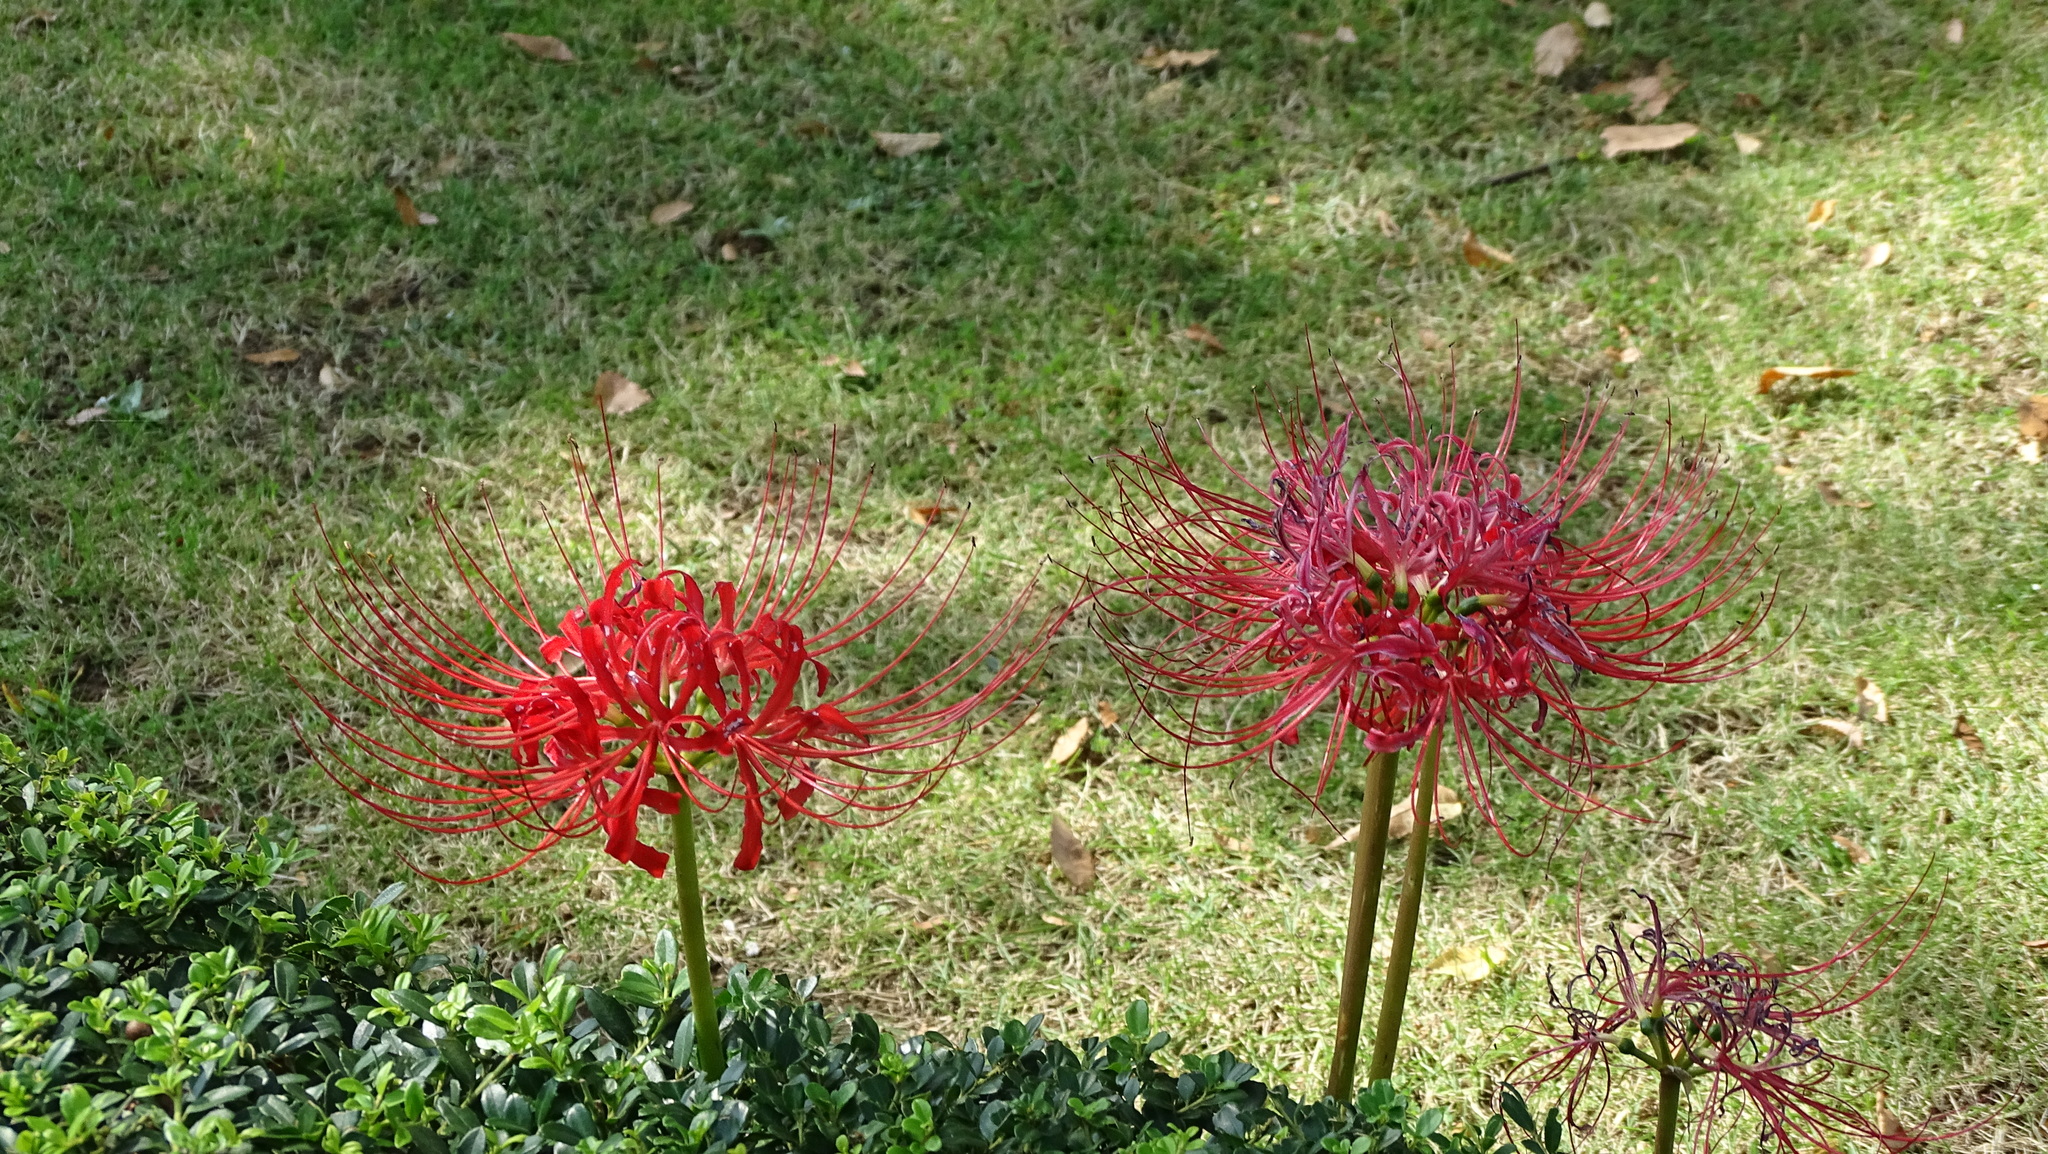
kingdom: Plantae
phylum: Tracheophyta
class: Liliopsida
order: Asparagales
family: Amaryllidaceae
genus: Lycoris
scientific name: Lycoris radiata
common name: Red spider lily
